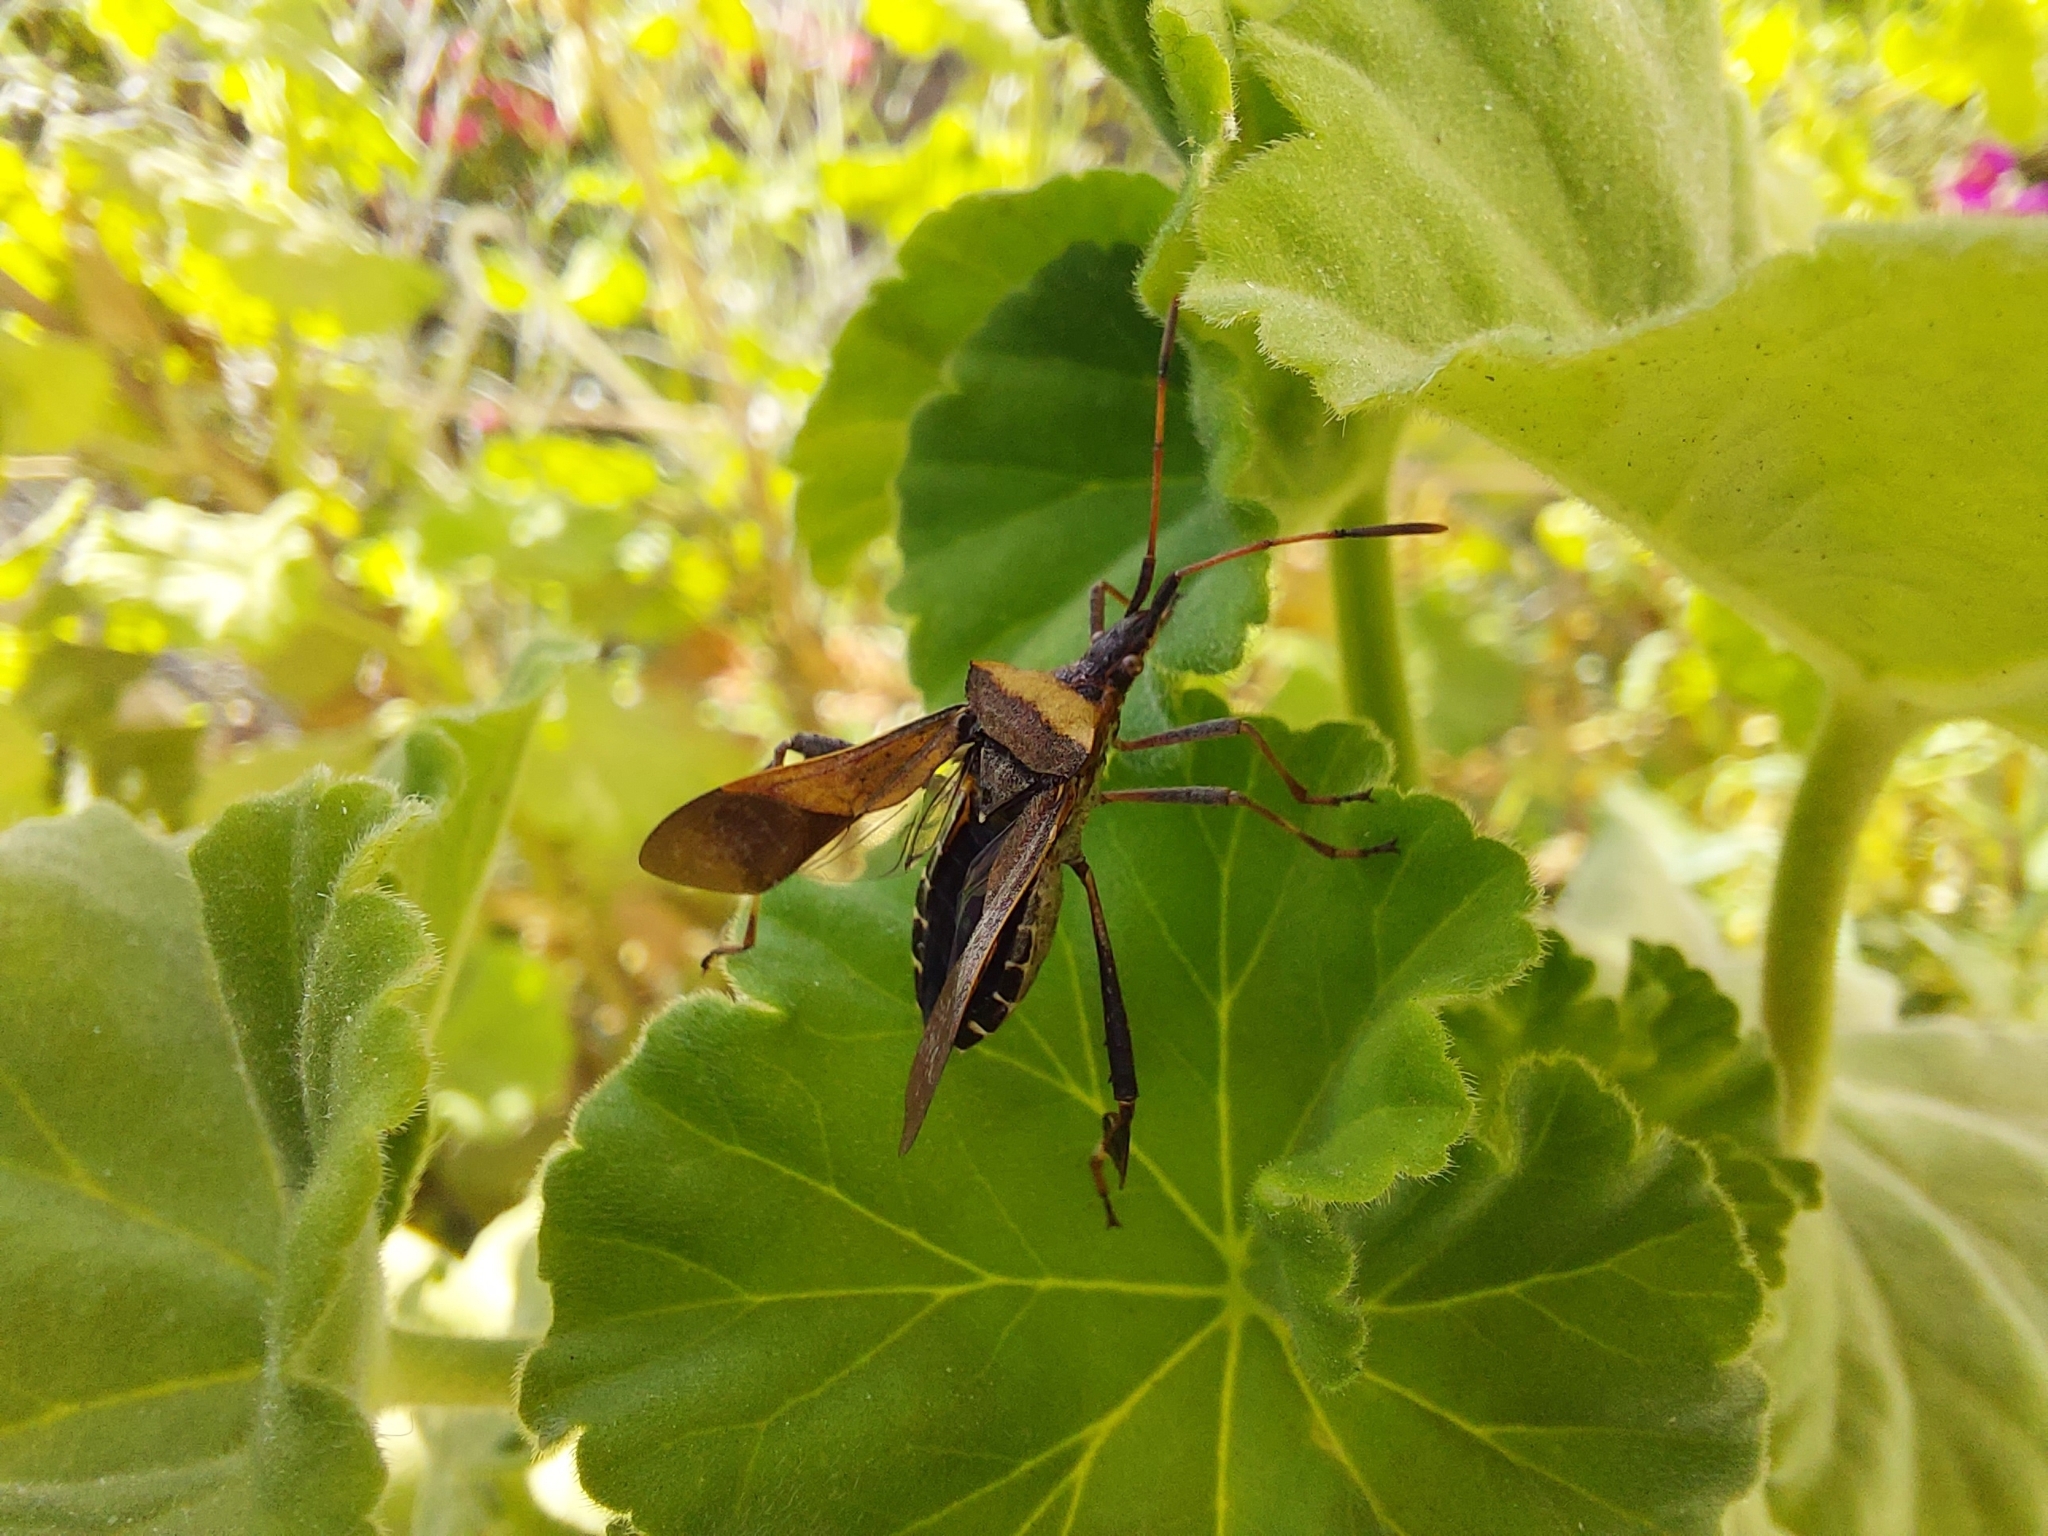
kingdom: Animalia
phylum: Arthropoda
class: Insecta
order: Hemiptera
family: Coreidae
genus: Leptoglossus
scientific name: Leptoglossus chilensis
